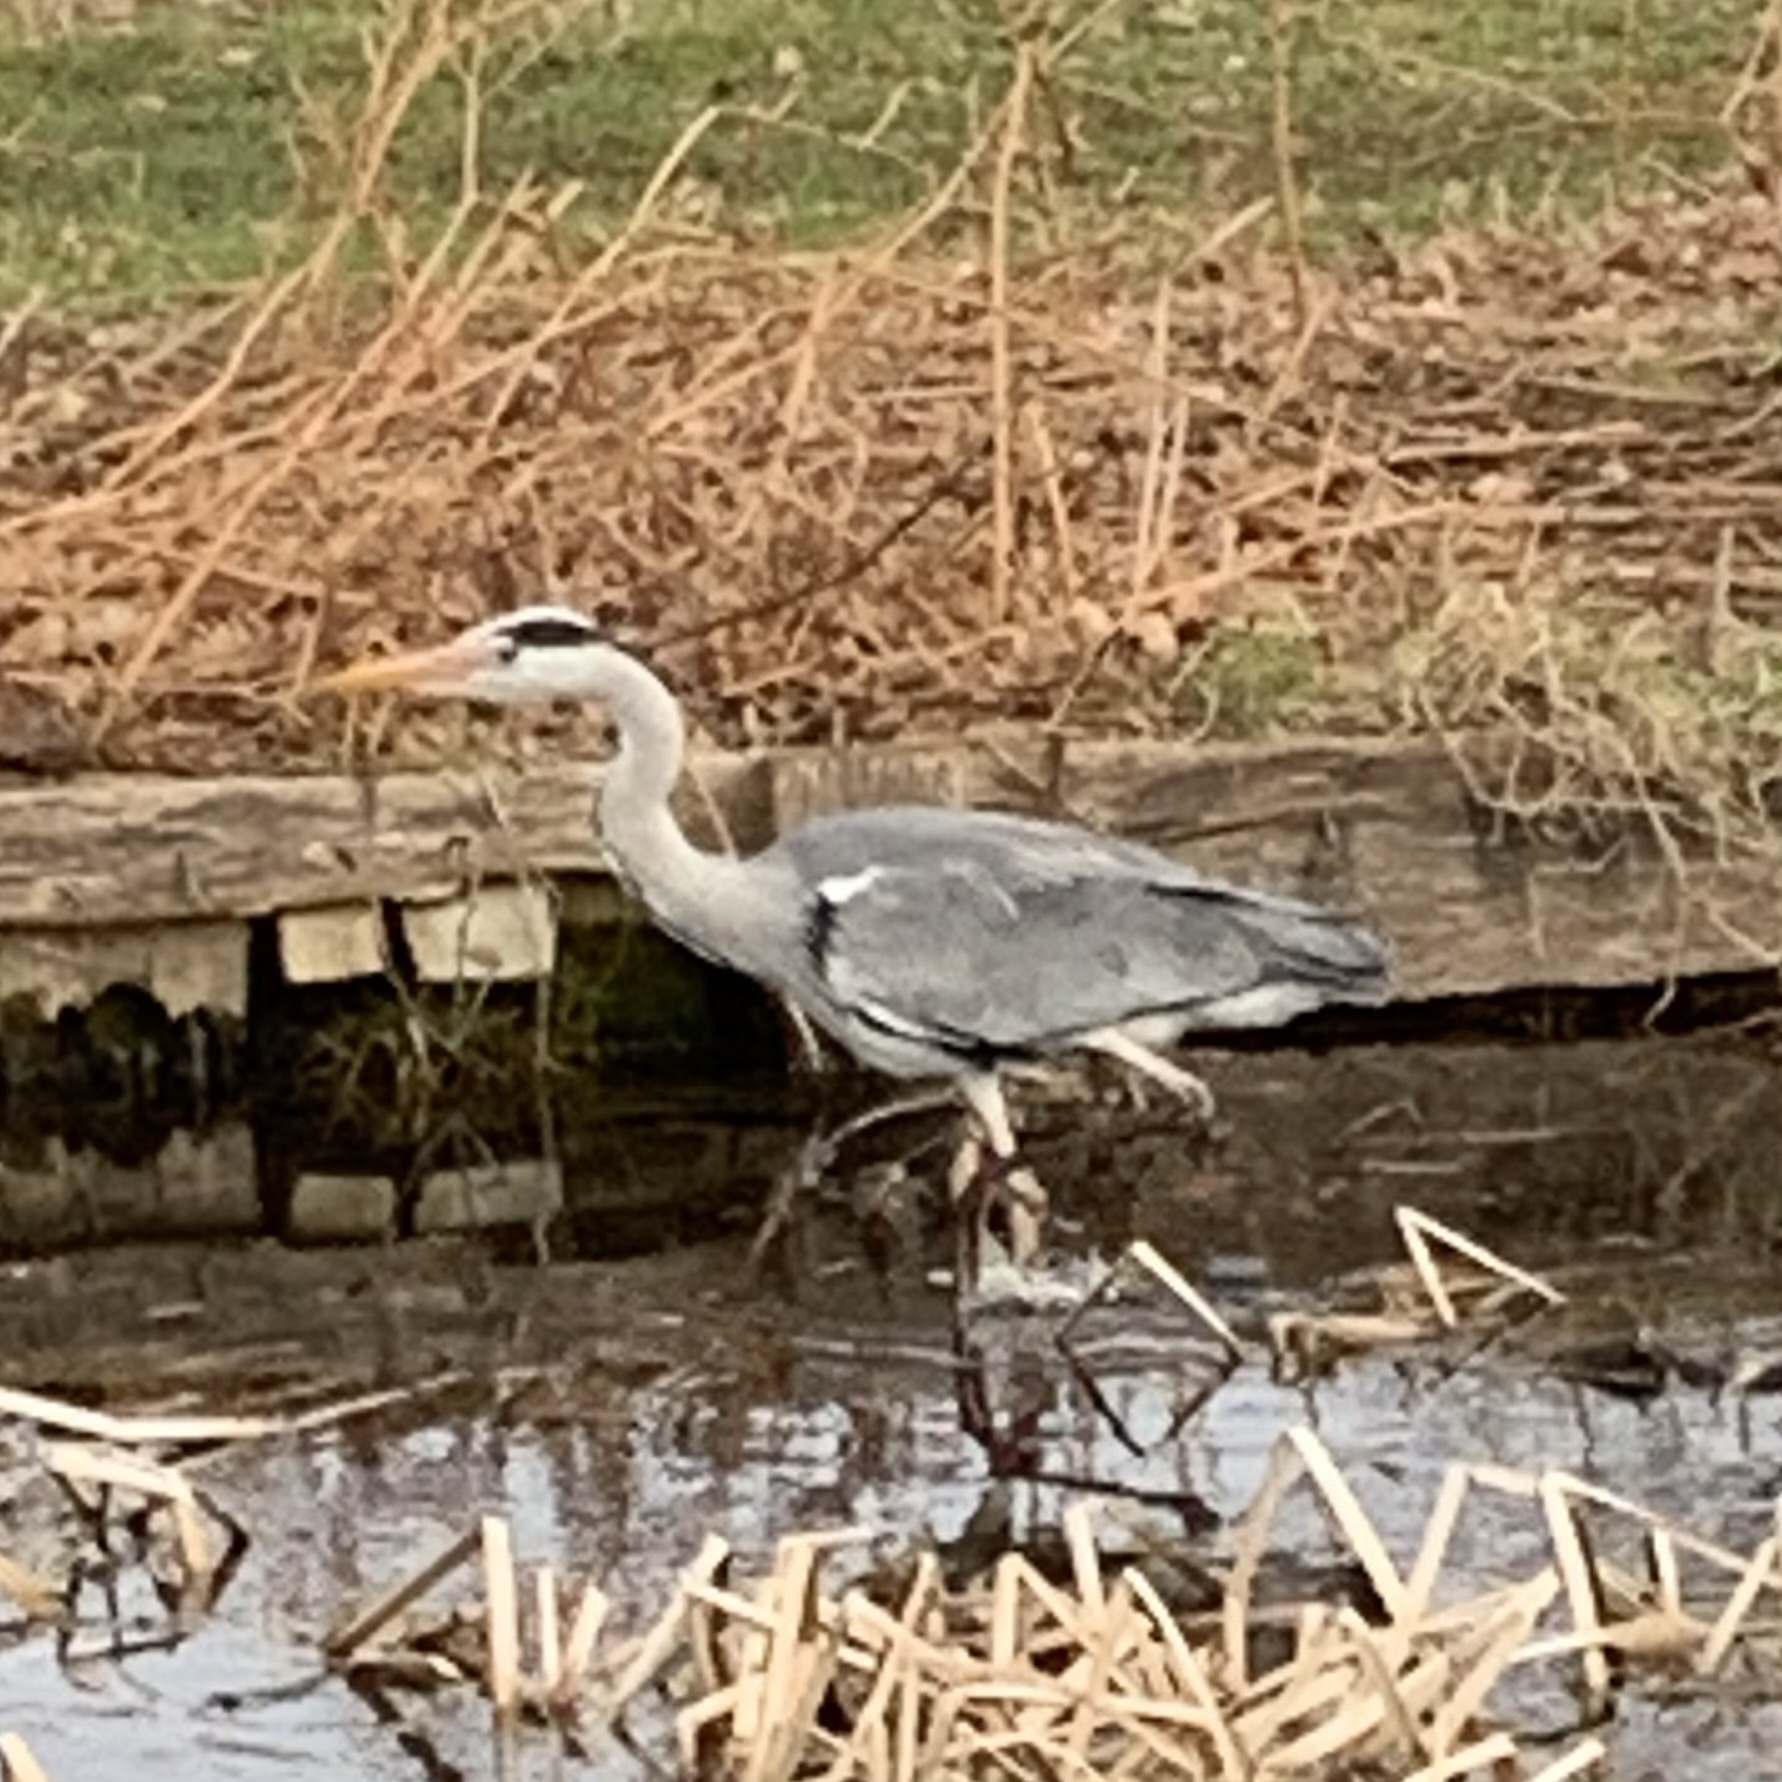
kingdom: Animalia
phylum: Chordata
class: Aves
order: Pelecaniformes
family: Ardeidae
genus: Ardea
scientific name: Ardea cinerea
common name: Grey heron
